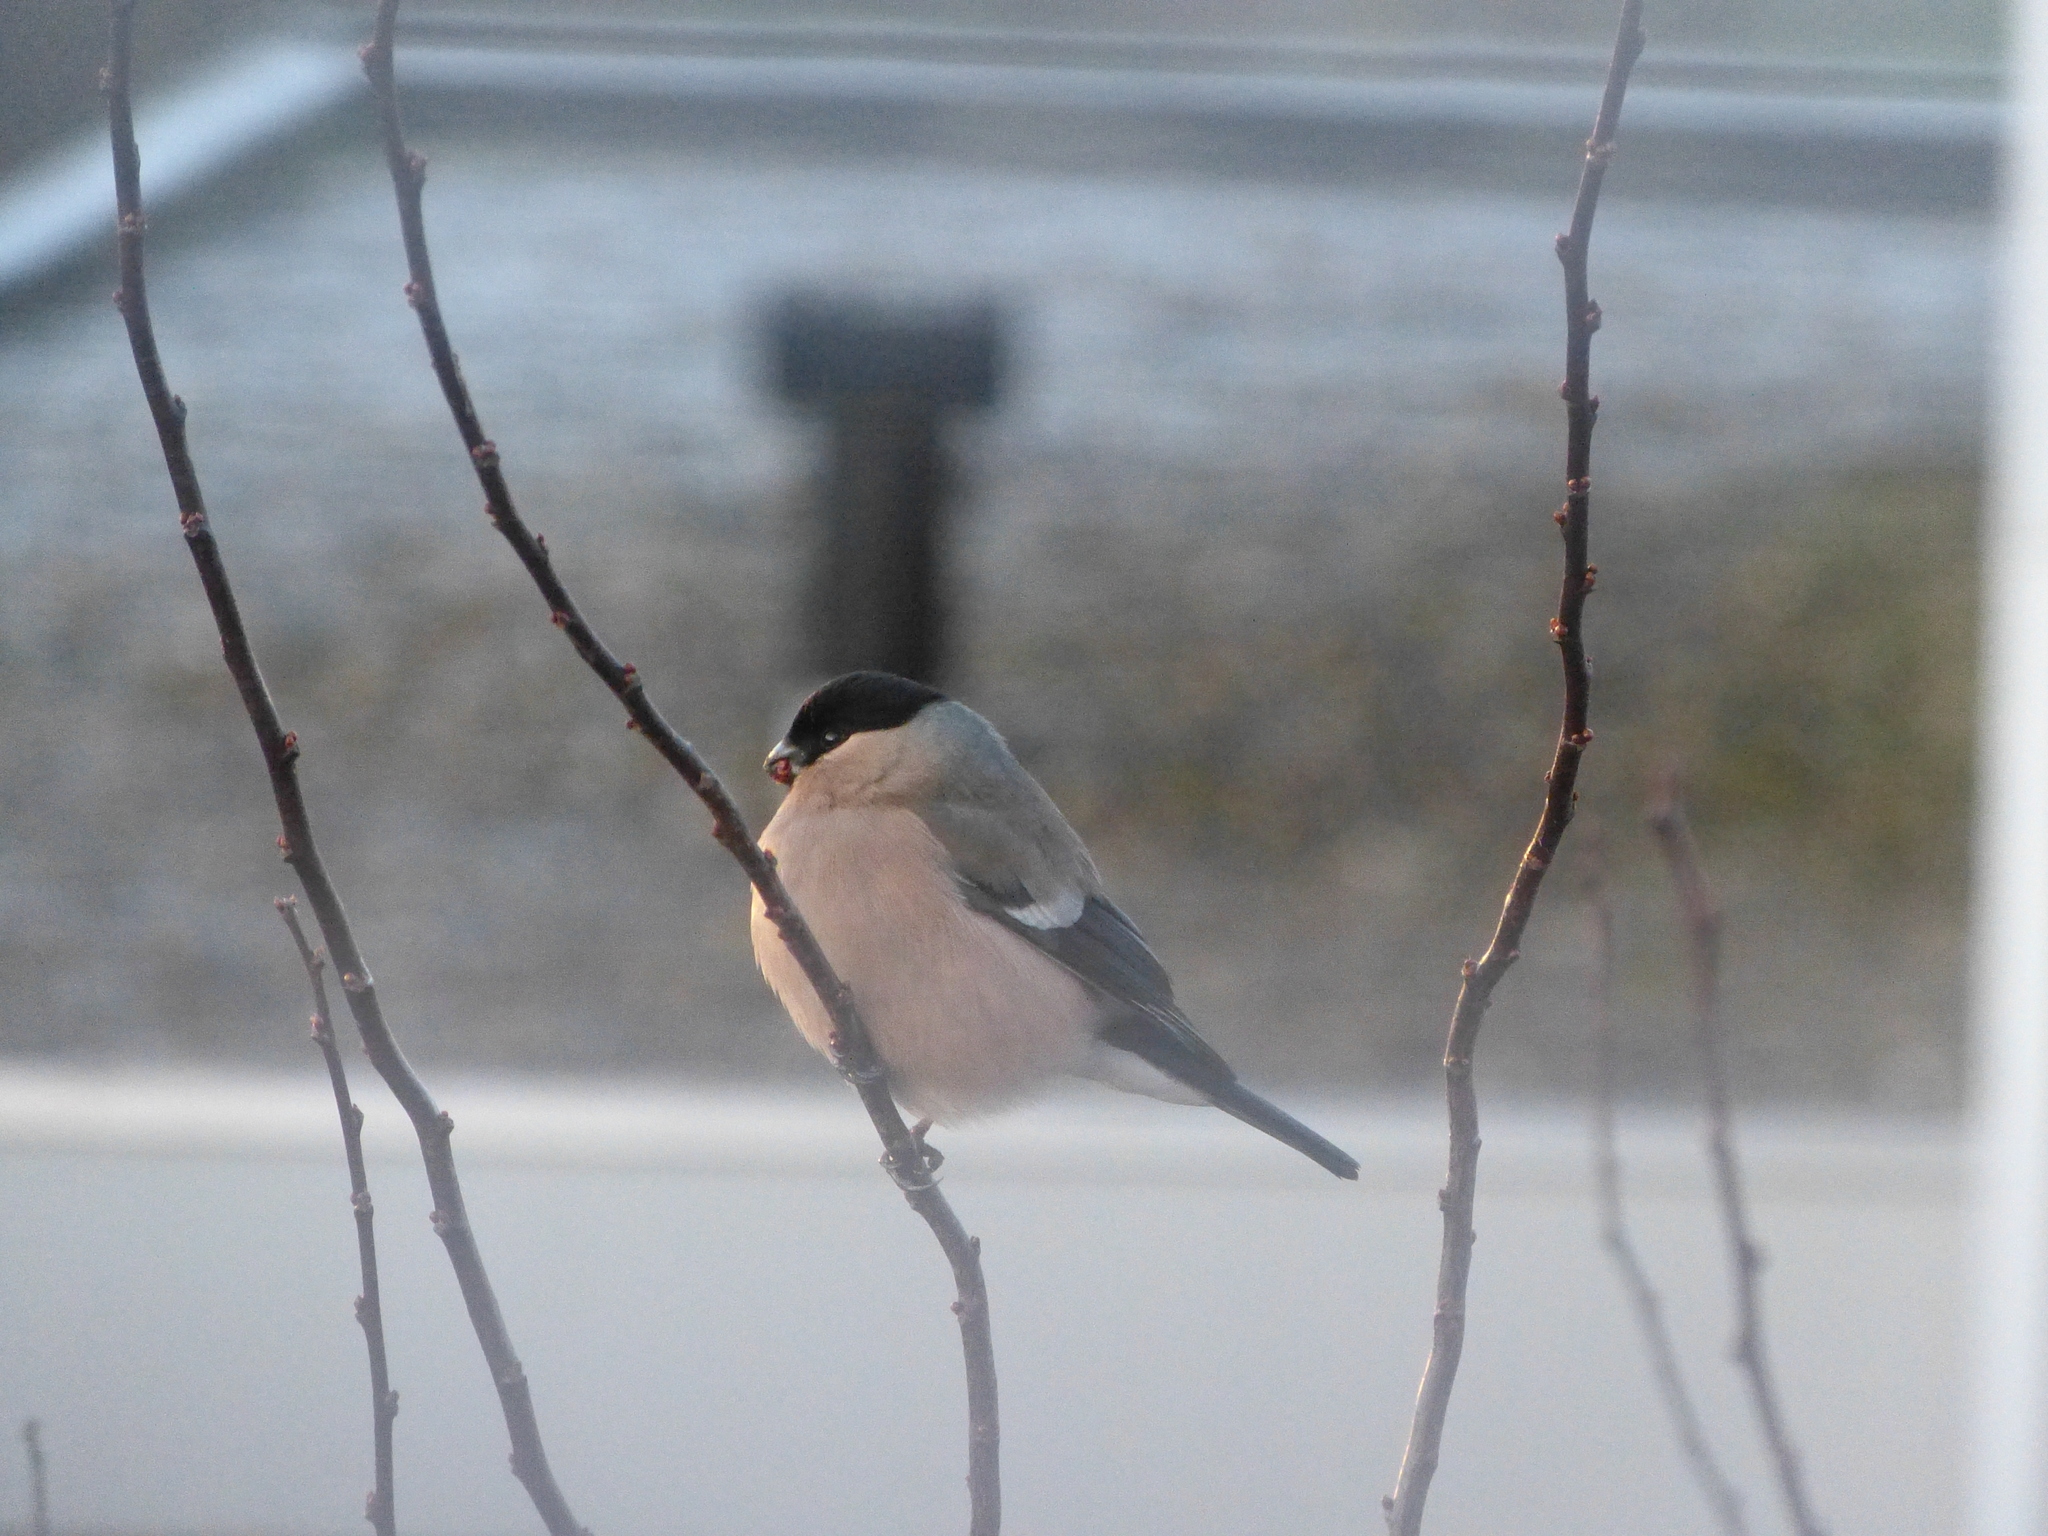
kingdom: Animalia
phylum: Chordata
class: Aves
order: Passeriformes
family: Fringillidae
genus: Pyrrhula
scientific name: Pyrrhula pyrrhula
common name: Eurasian bullfinch
